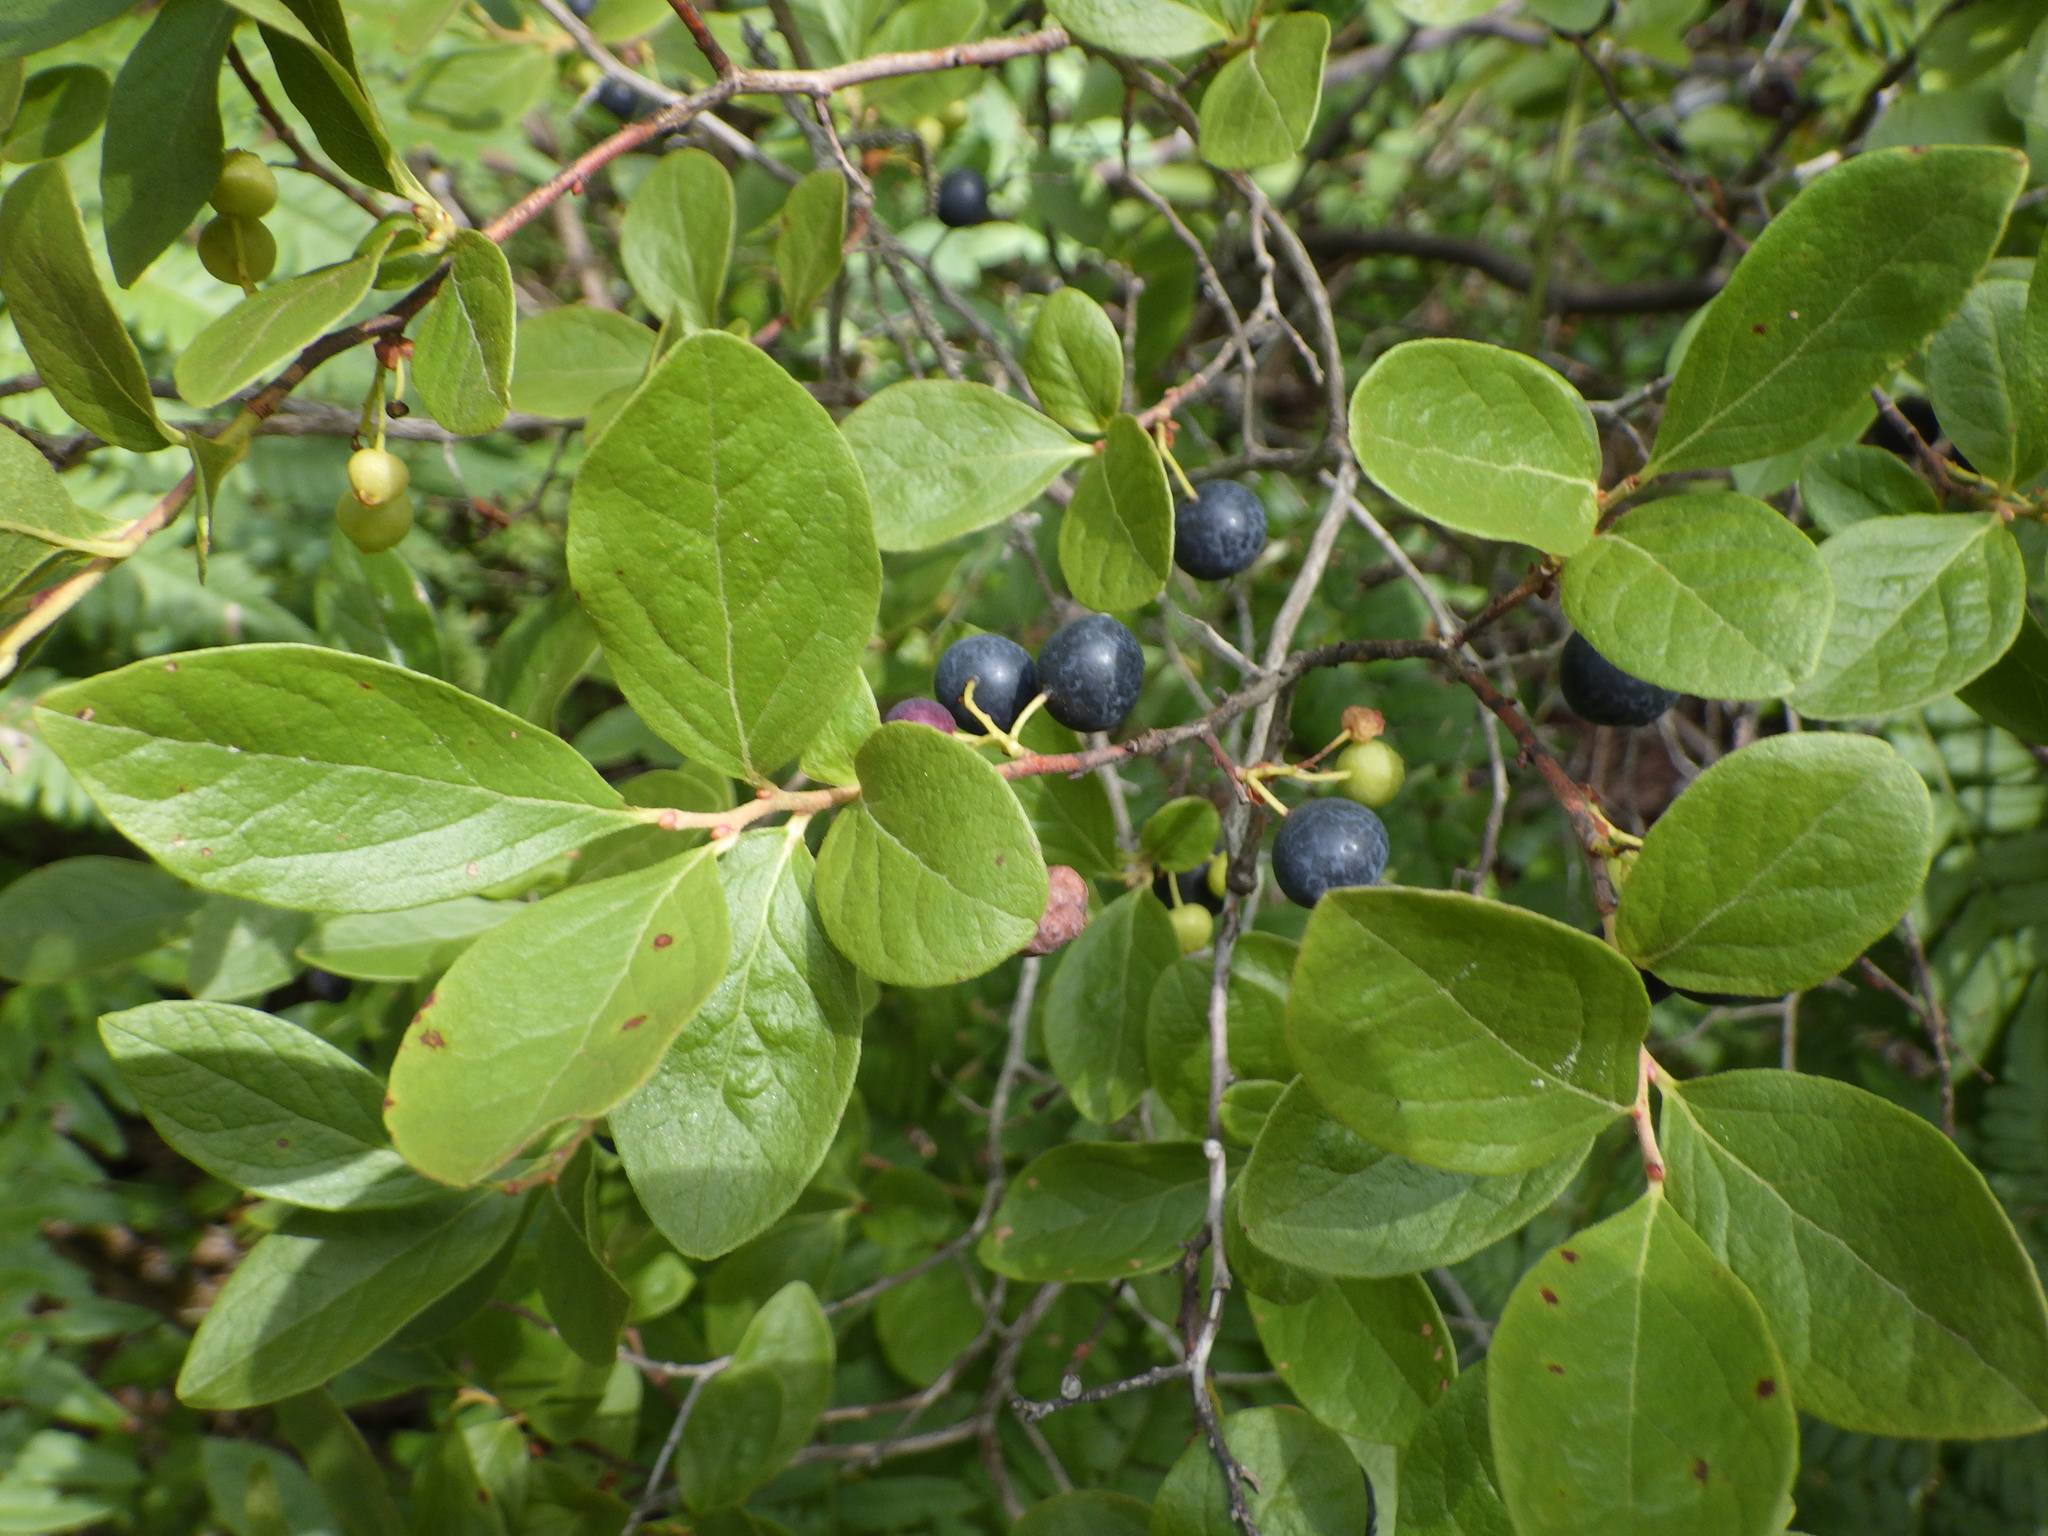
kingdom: Plantae
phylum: Tracheophyta
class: Magnoliopsida
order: Ericales
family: Ericaceae
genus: Gaylussacia
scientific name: Gaylussacia baccata
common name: Black huckleberry
